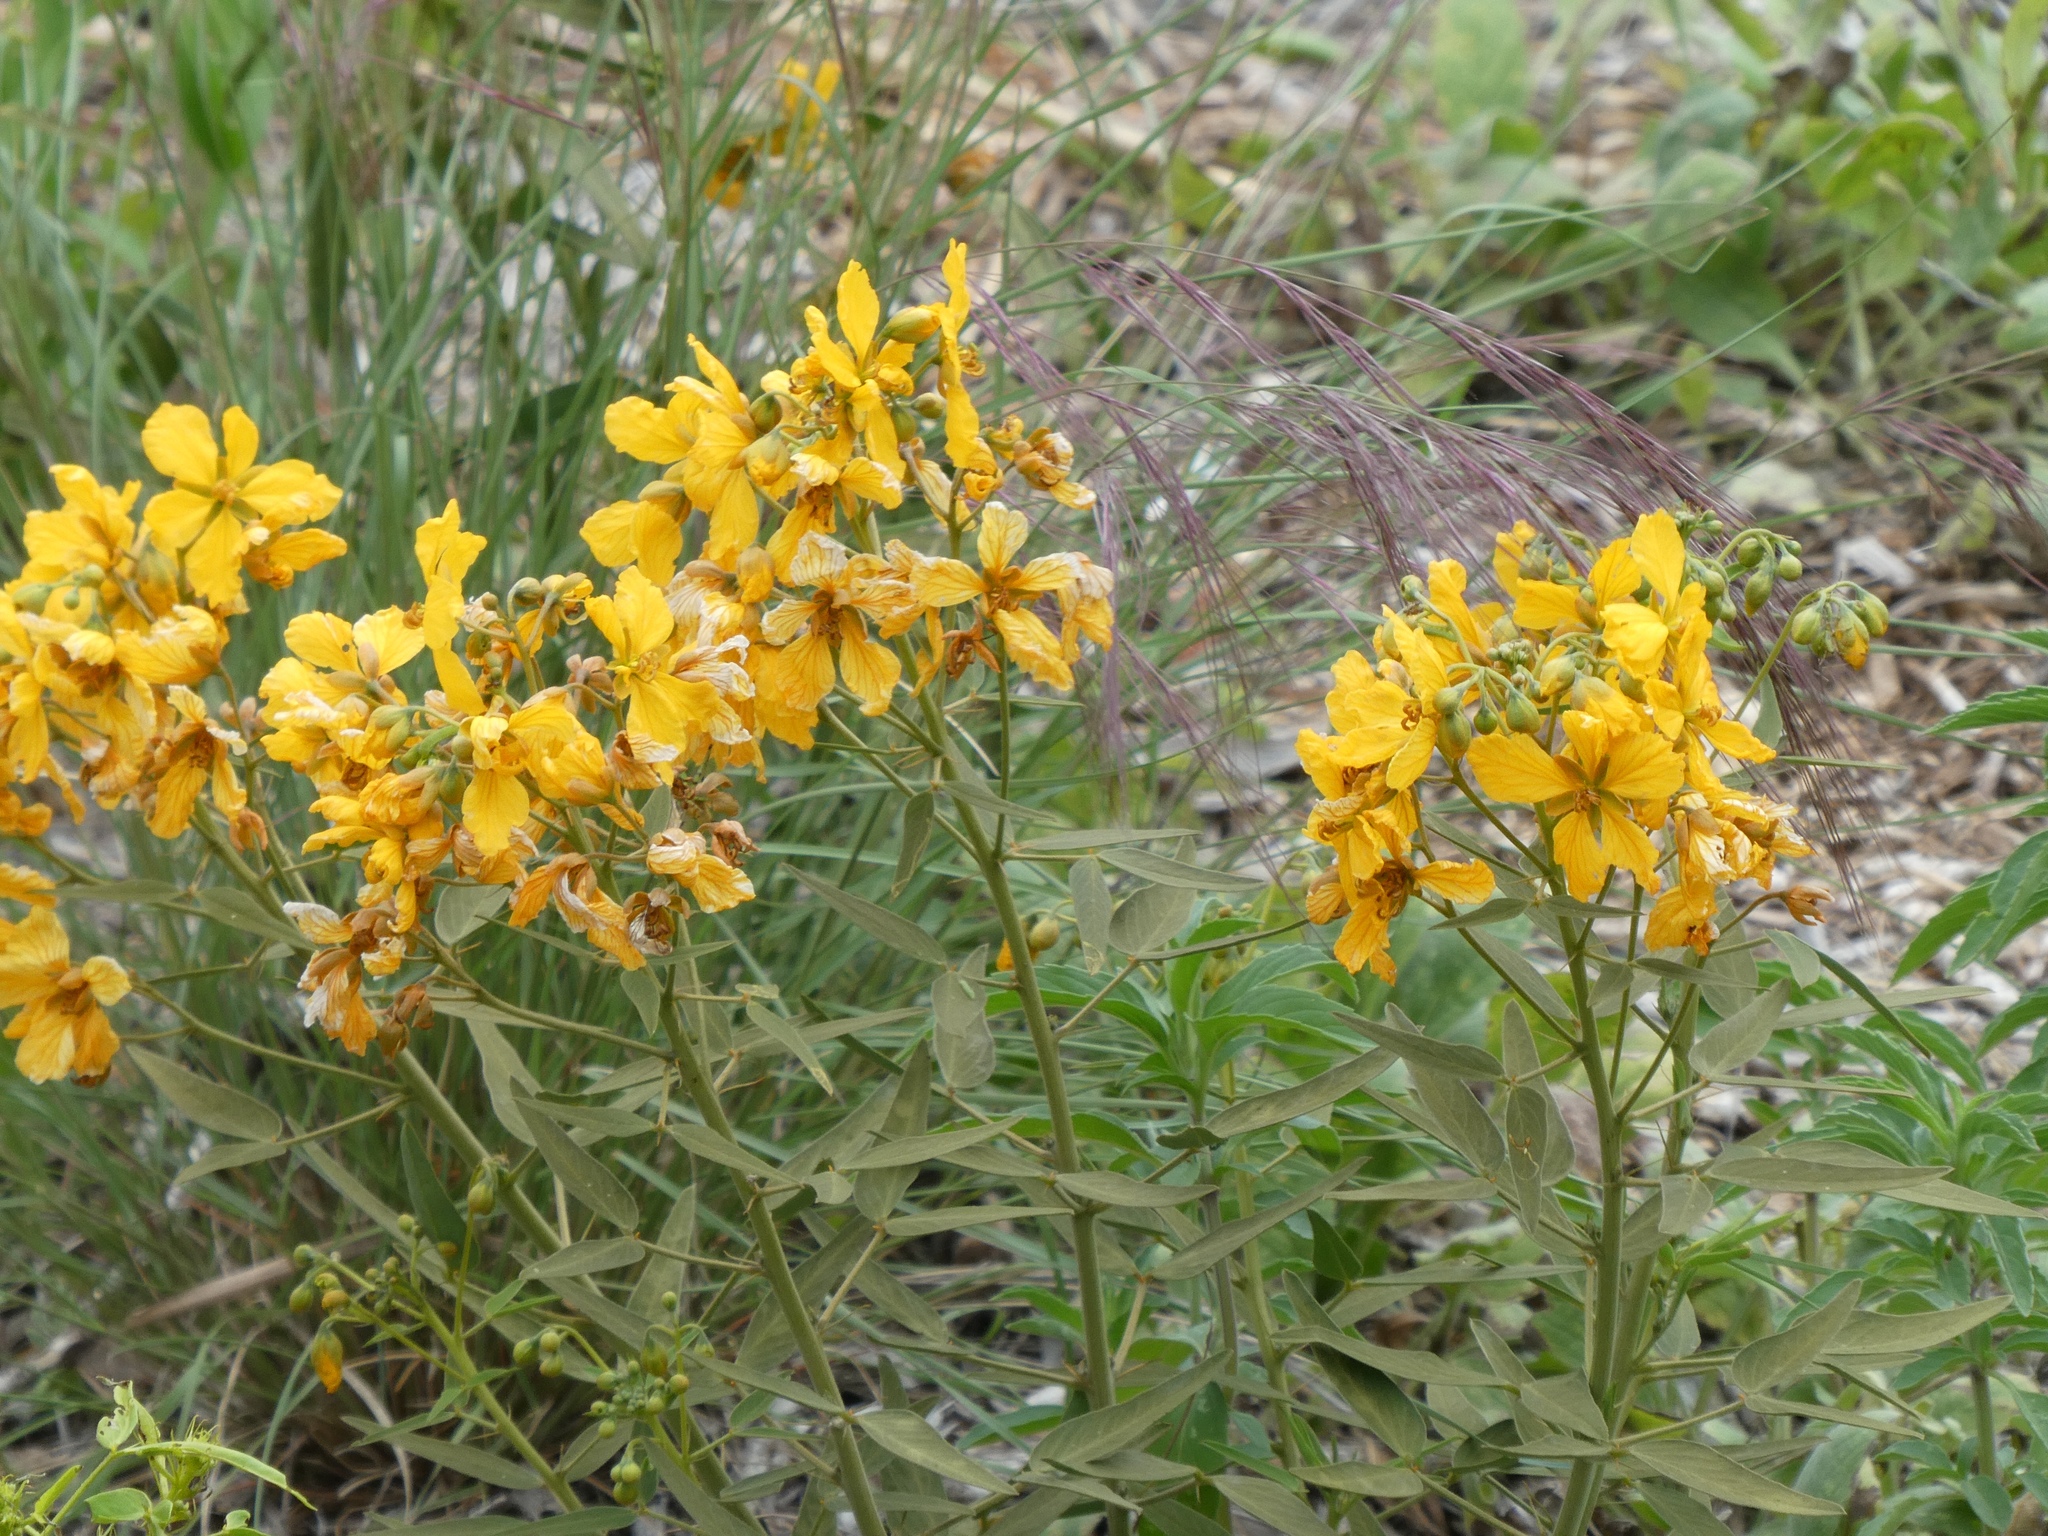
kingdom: Plantae
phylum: Tracheophyta
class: Magnoliopsida
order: Fabales
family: Fabaceae
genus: Senna
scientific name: Senna roemeriana
